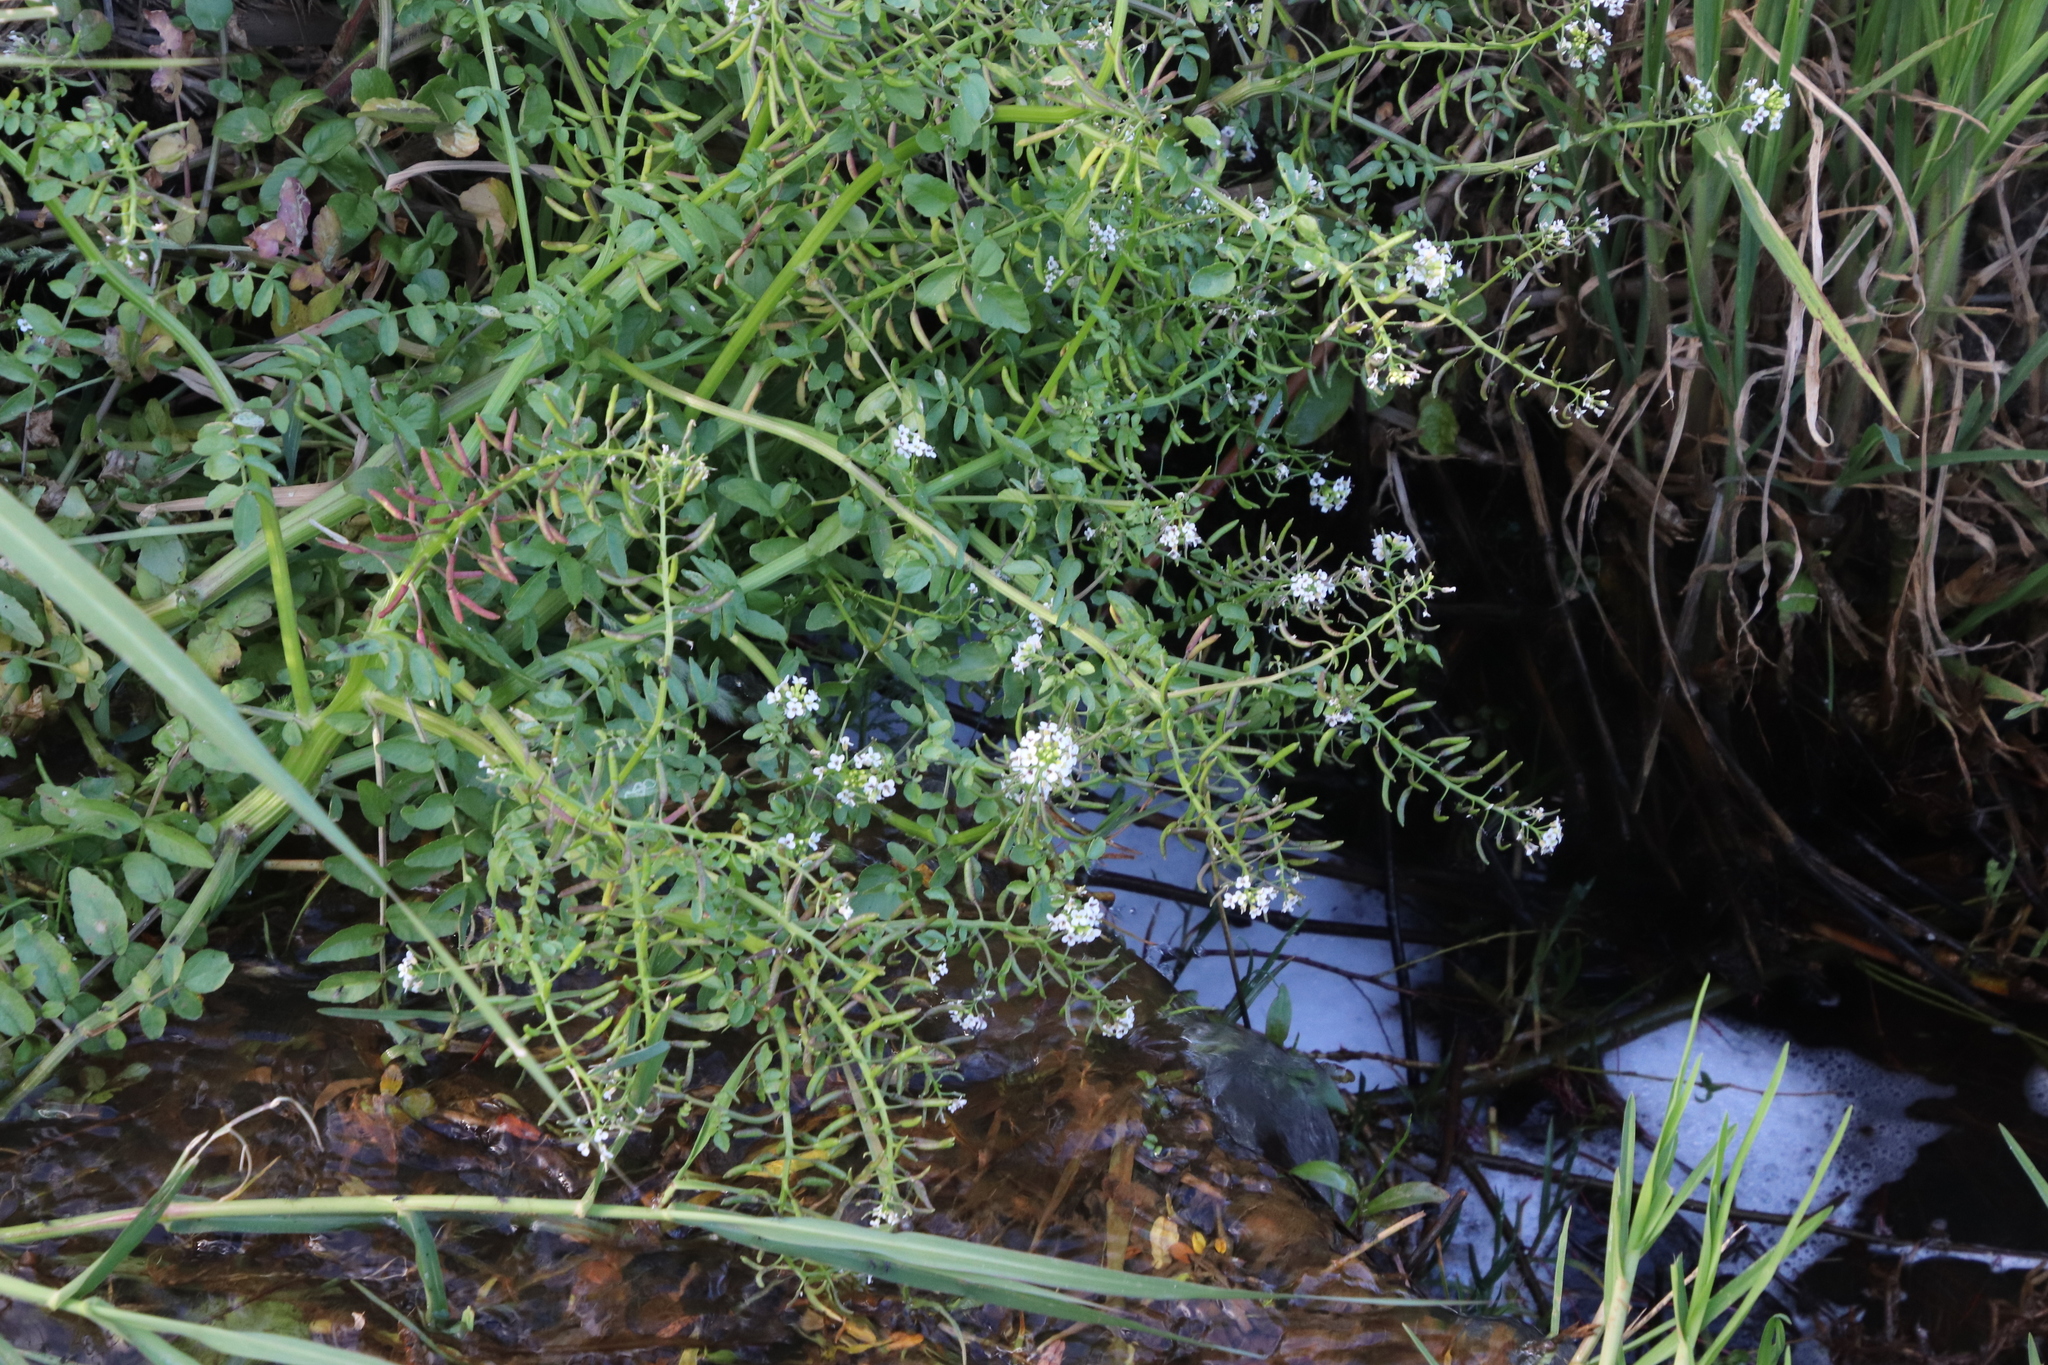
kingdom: Plantae
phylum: Tracheophyta
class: Magnoliopsida
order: Brassicales
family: Brassicaceae
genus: Nasturtium
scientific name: Nasturtium officinale
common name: Watercress
